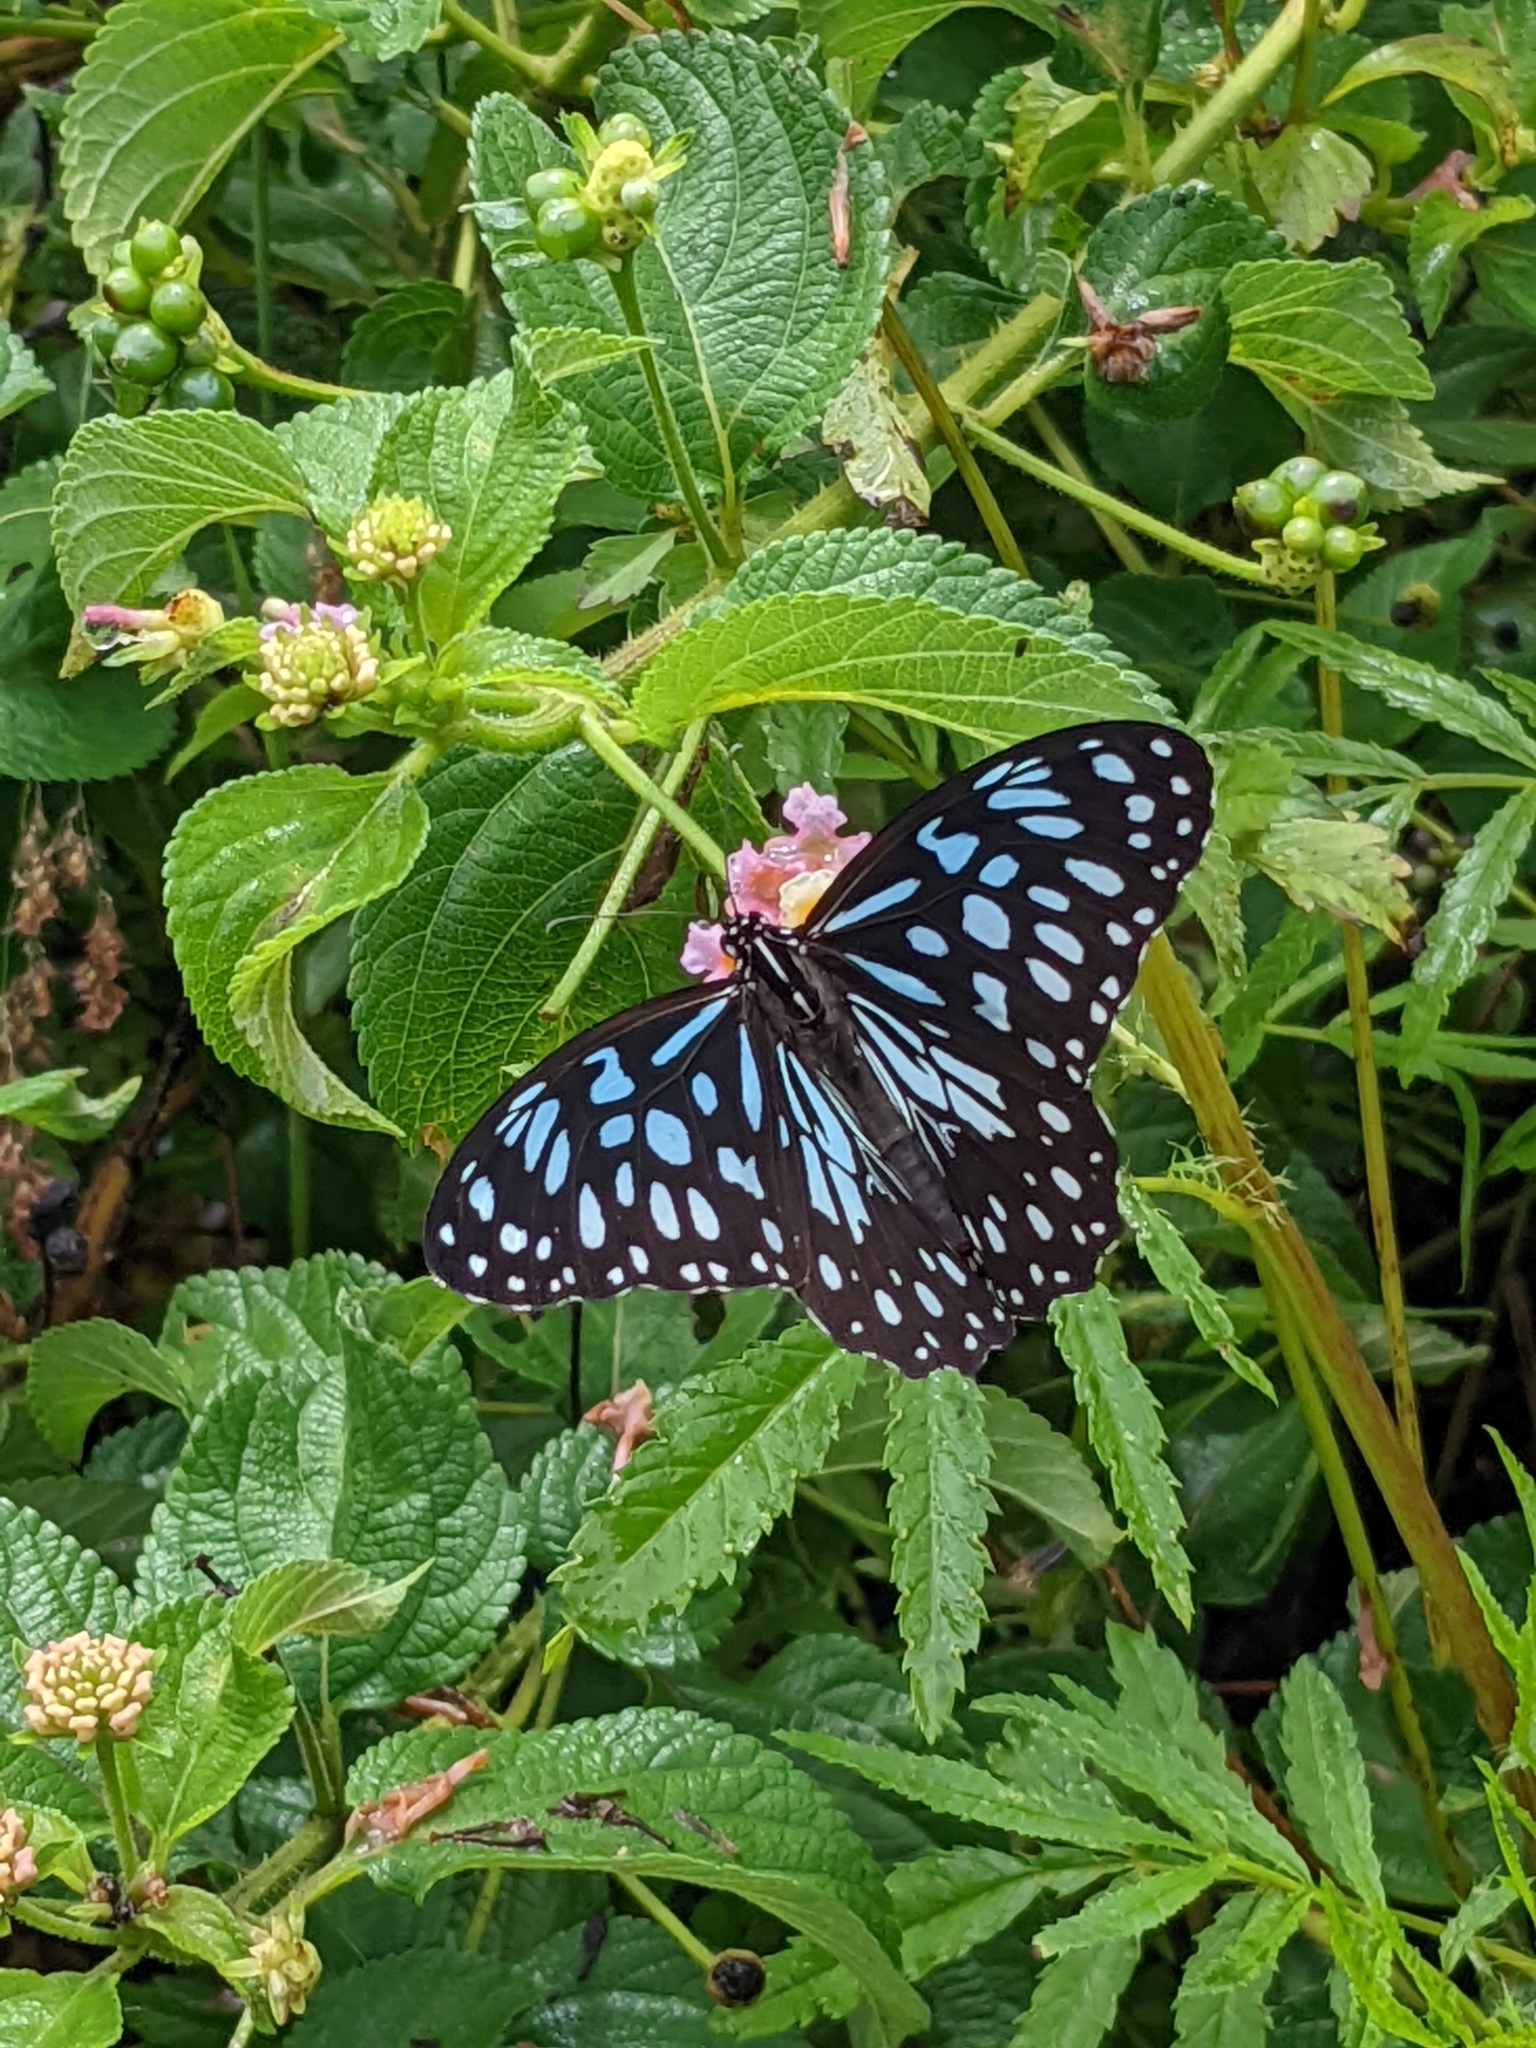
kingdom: Animalia
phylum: Arthropoda
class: Insecta
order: Lepidoptera
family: Nymphalidae
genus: Tirumala
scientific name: Tirumala hamata
